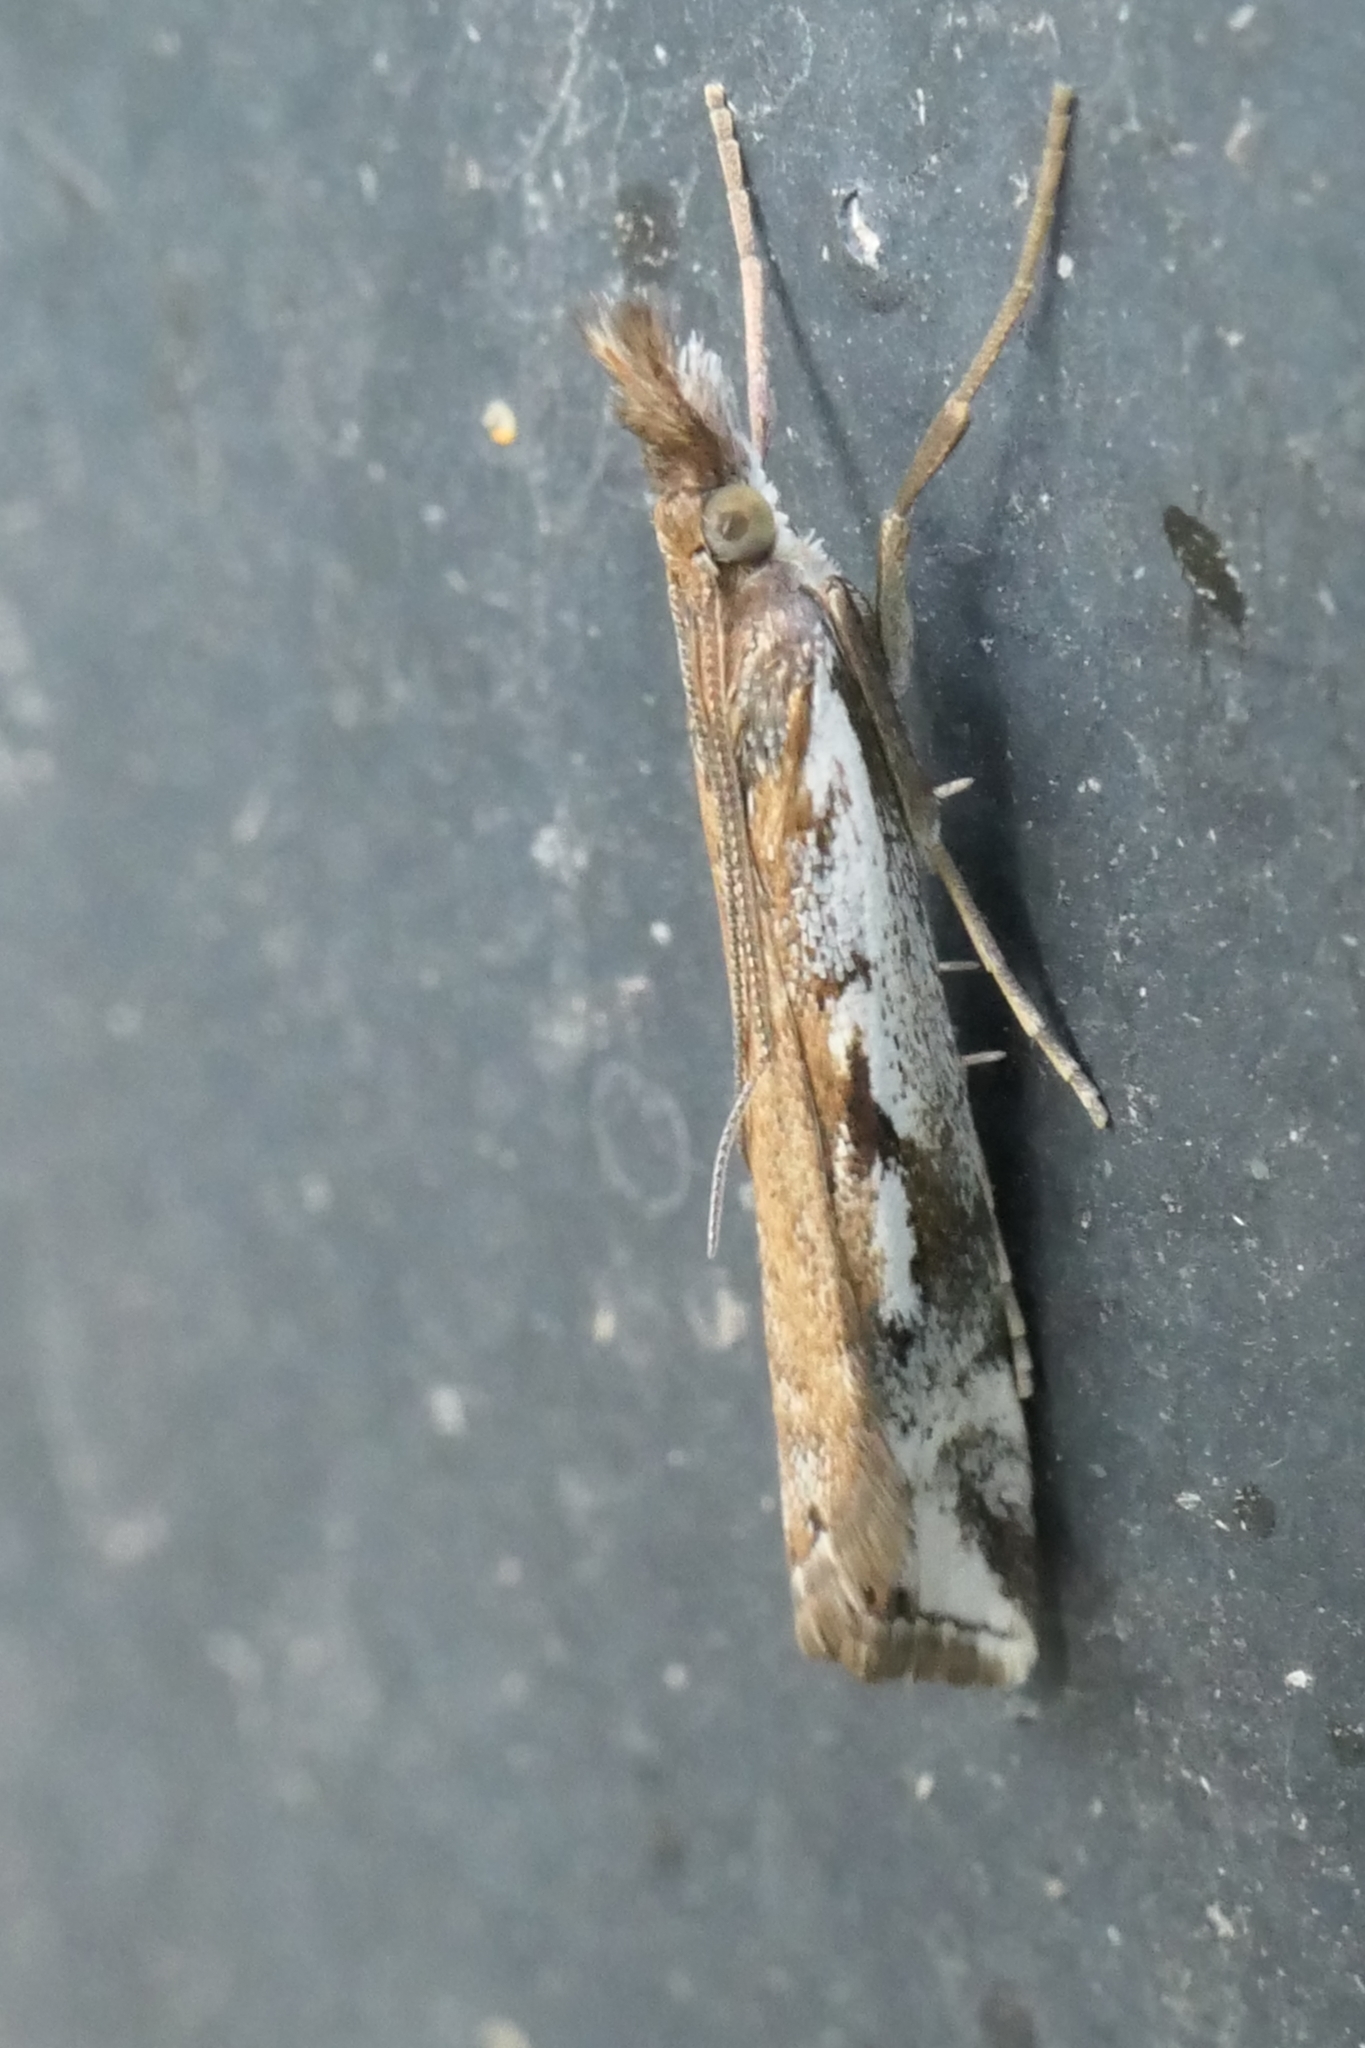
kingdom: Animalia
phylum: Arthropoda
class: Insecta
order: Lepidoptera
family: Crambidae
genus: Orocrambus
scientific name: Orocrambus vulgaris
